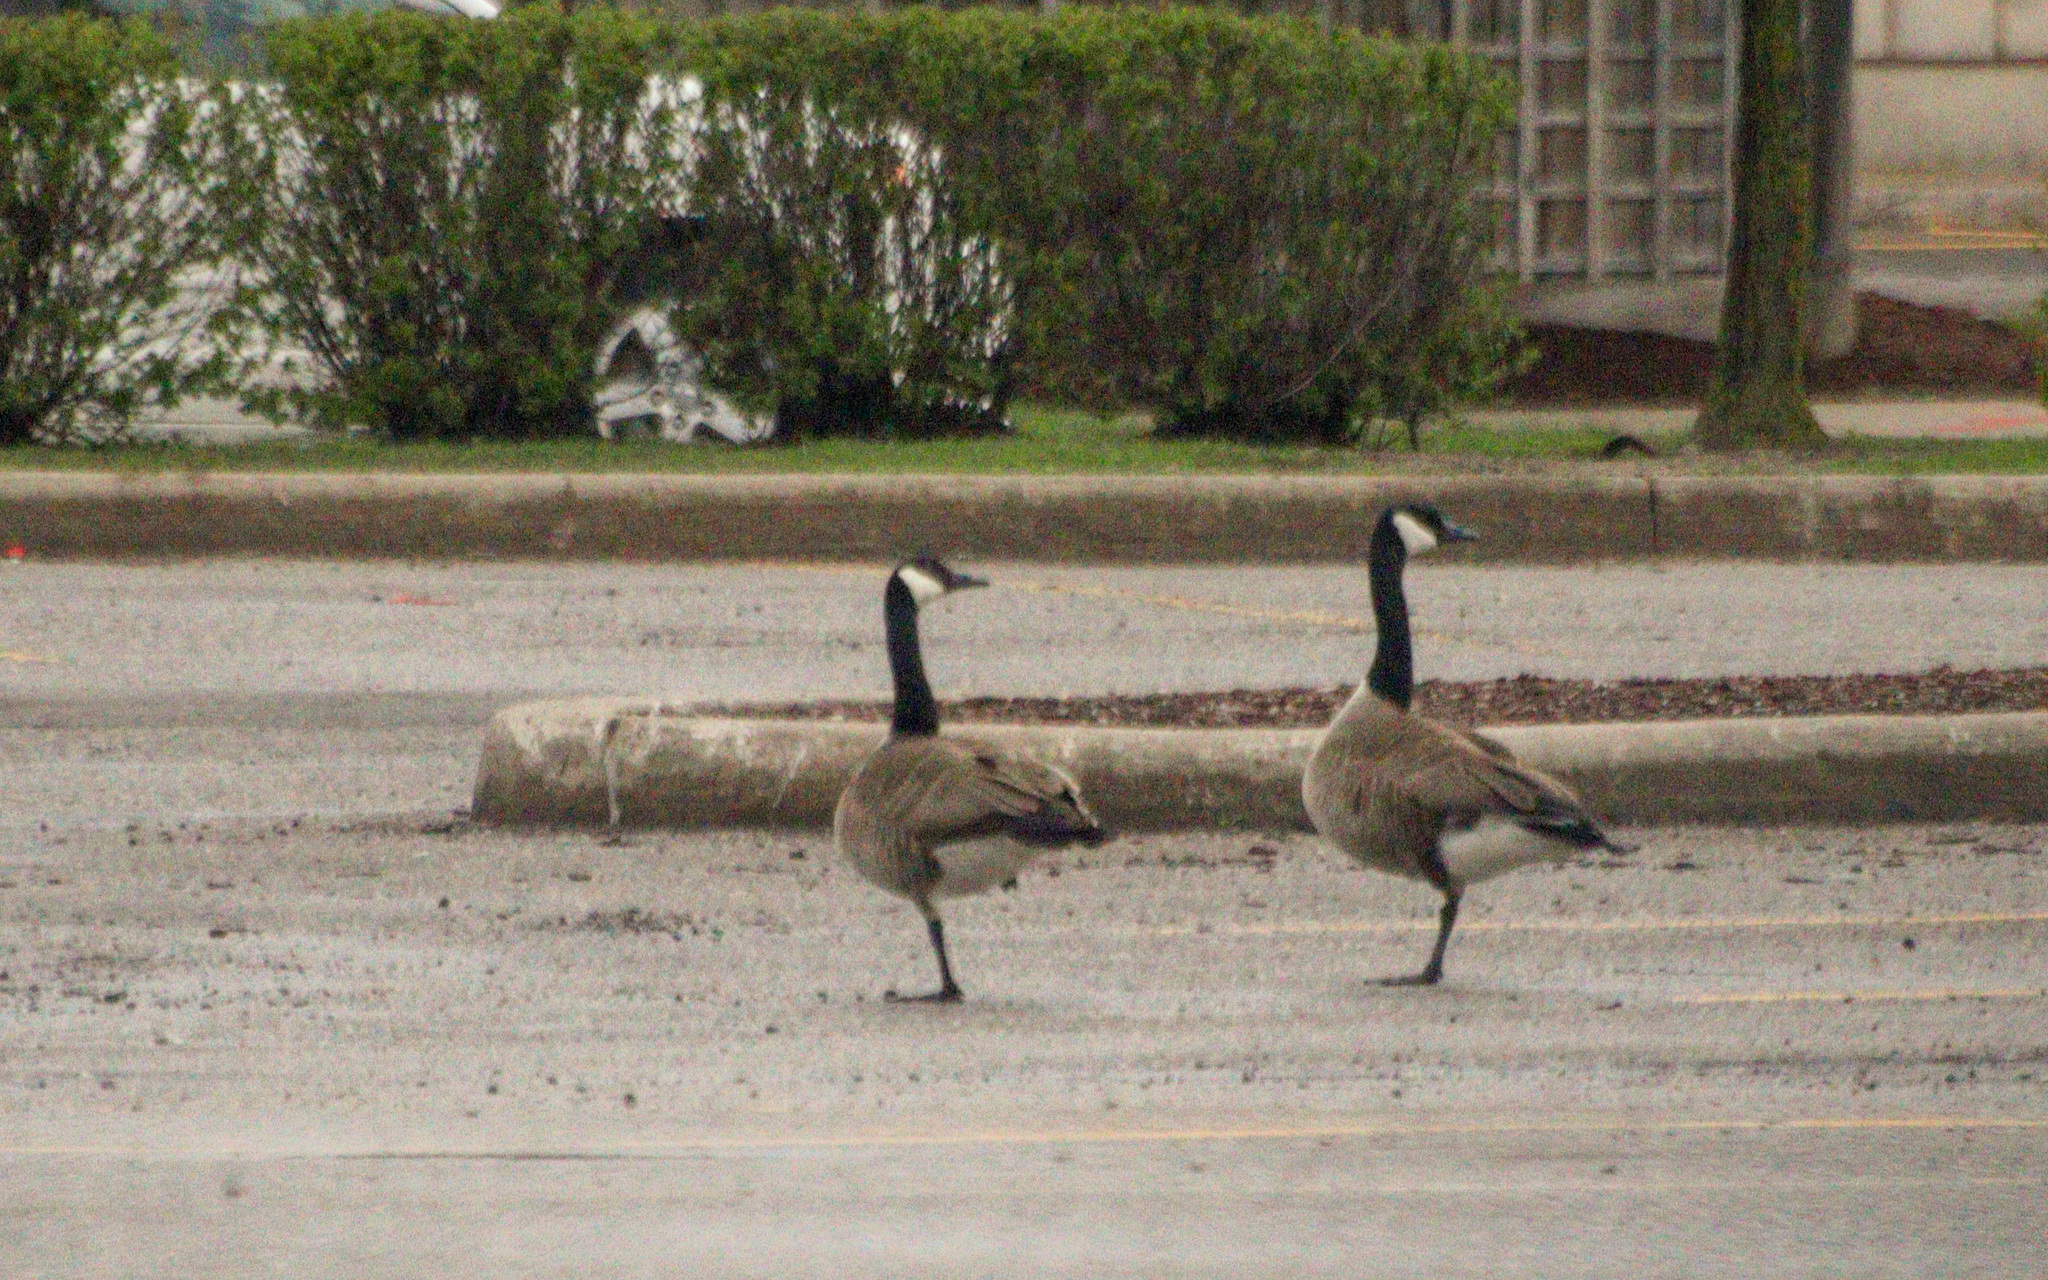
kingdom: Animalia
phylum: Chordata
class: Aves
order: Anseriformes
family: Anatidae
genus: Branta
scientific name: Branta canadensis
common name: Canada goose
